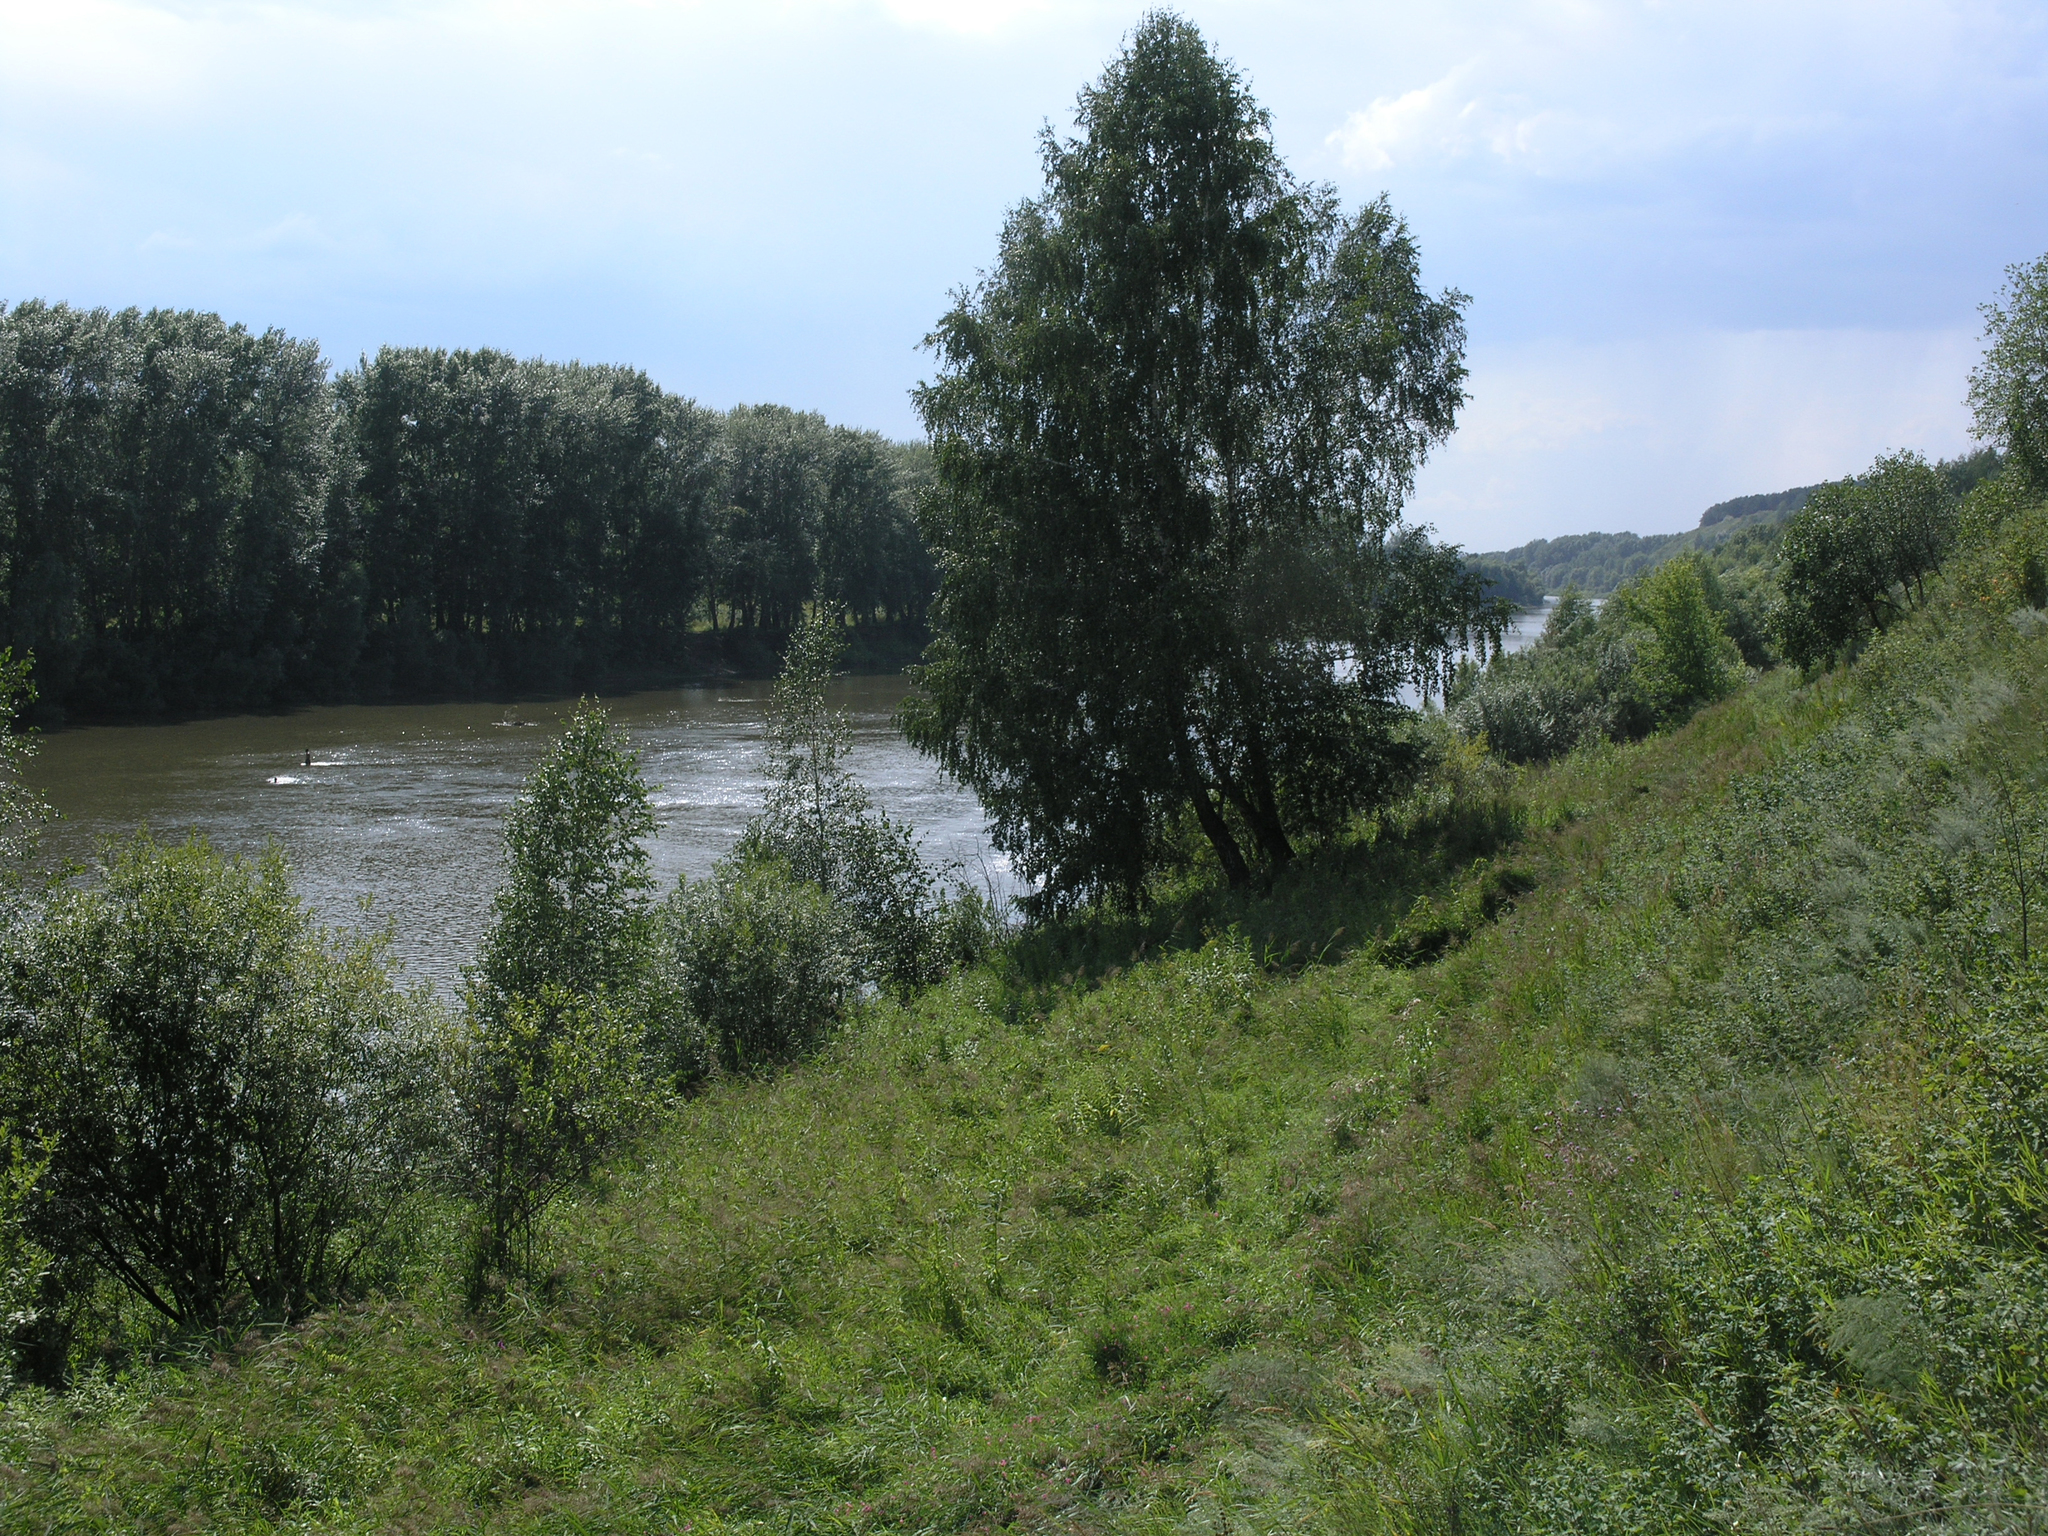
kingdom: Plantae
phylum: Tracheophyta
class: Magnoliopsida
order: Fagales
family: Betulaceae
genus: Betula
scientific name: Betula pendula
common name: Silver birch
